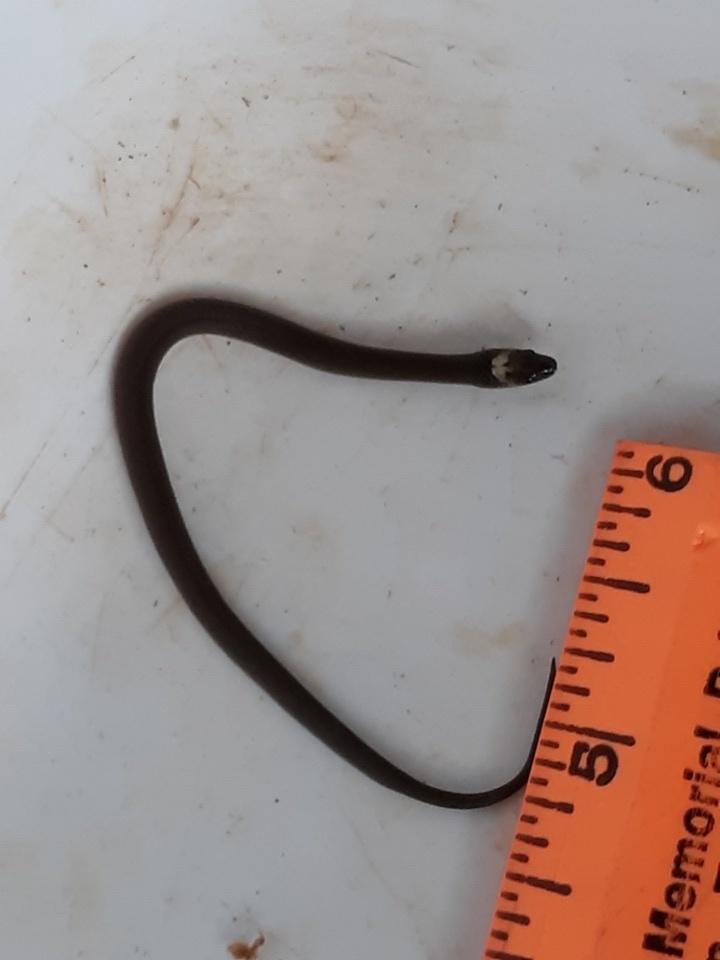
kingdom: Animalia
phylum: Chordata
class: Squamata
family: Colubridae
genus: Haldea
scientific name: Haldea striatula
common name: Rough earth snake
